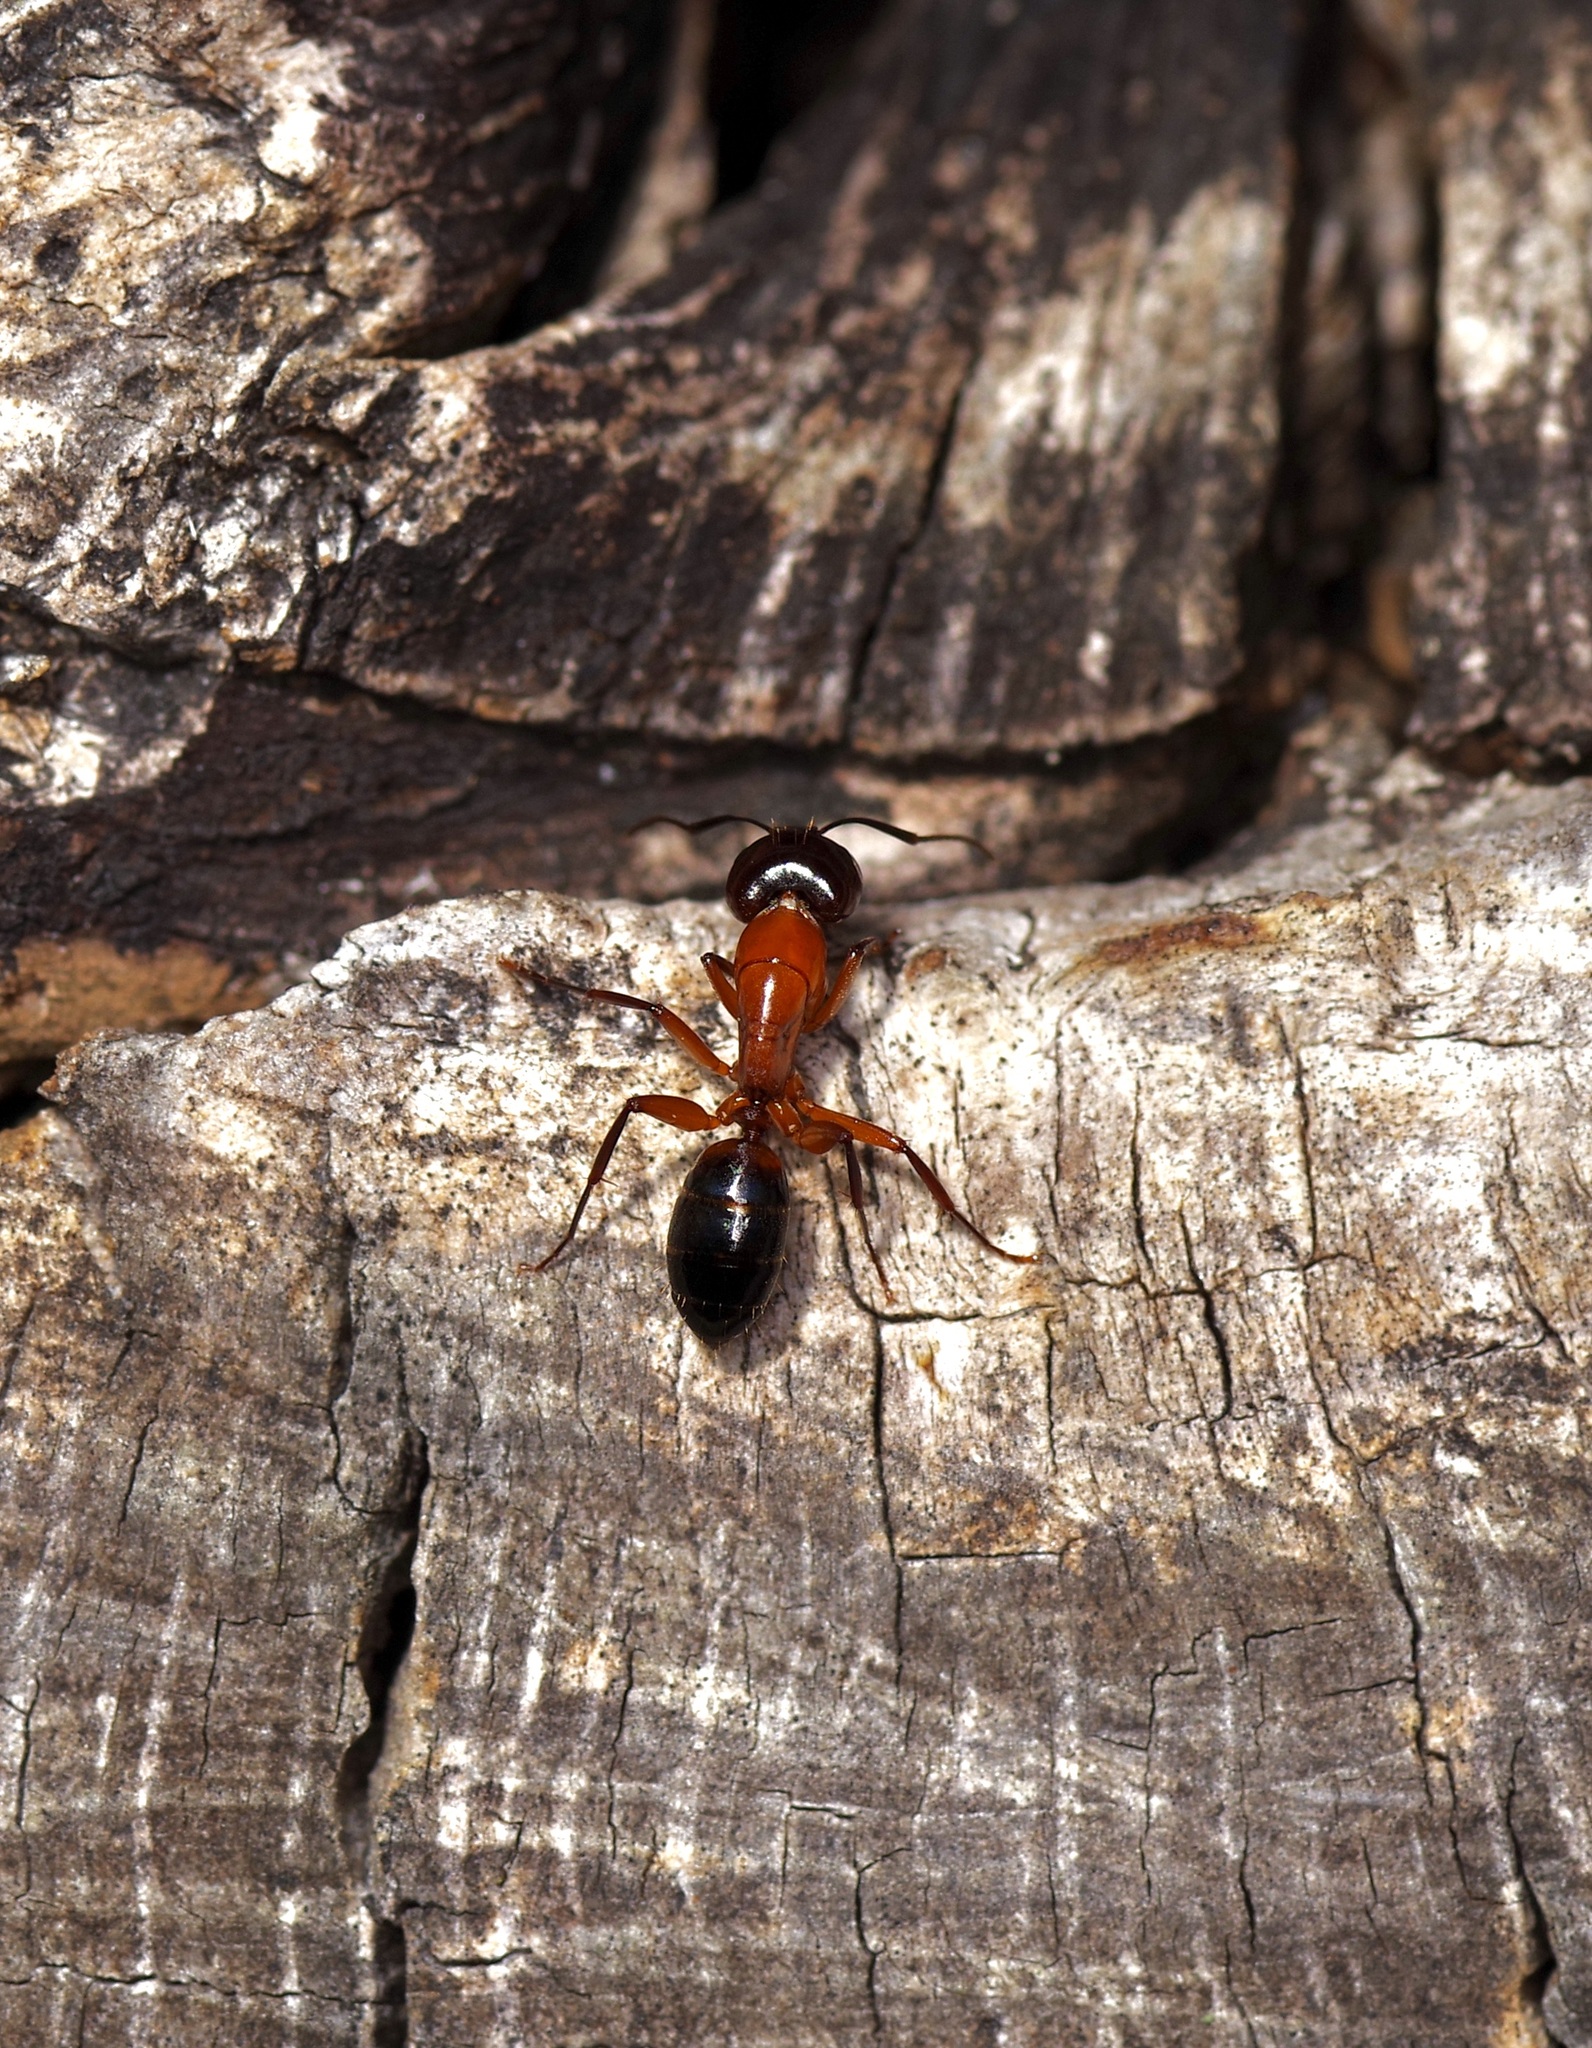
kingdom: Animalia
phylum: Arthropoda
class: Insecta
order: Hymenoptera
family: Formicidae
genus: Camponotus
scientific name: Camponotus texanus
